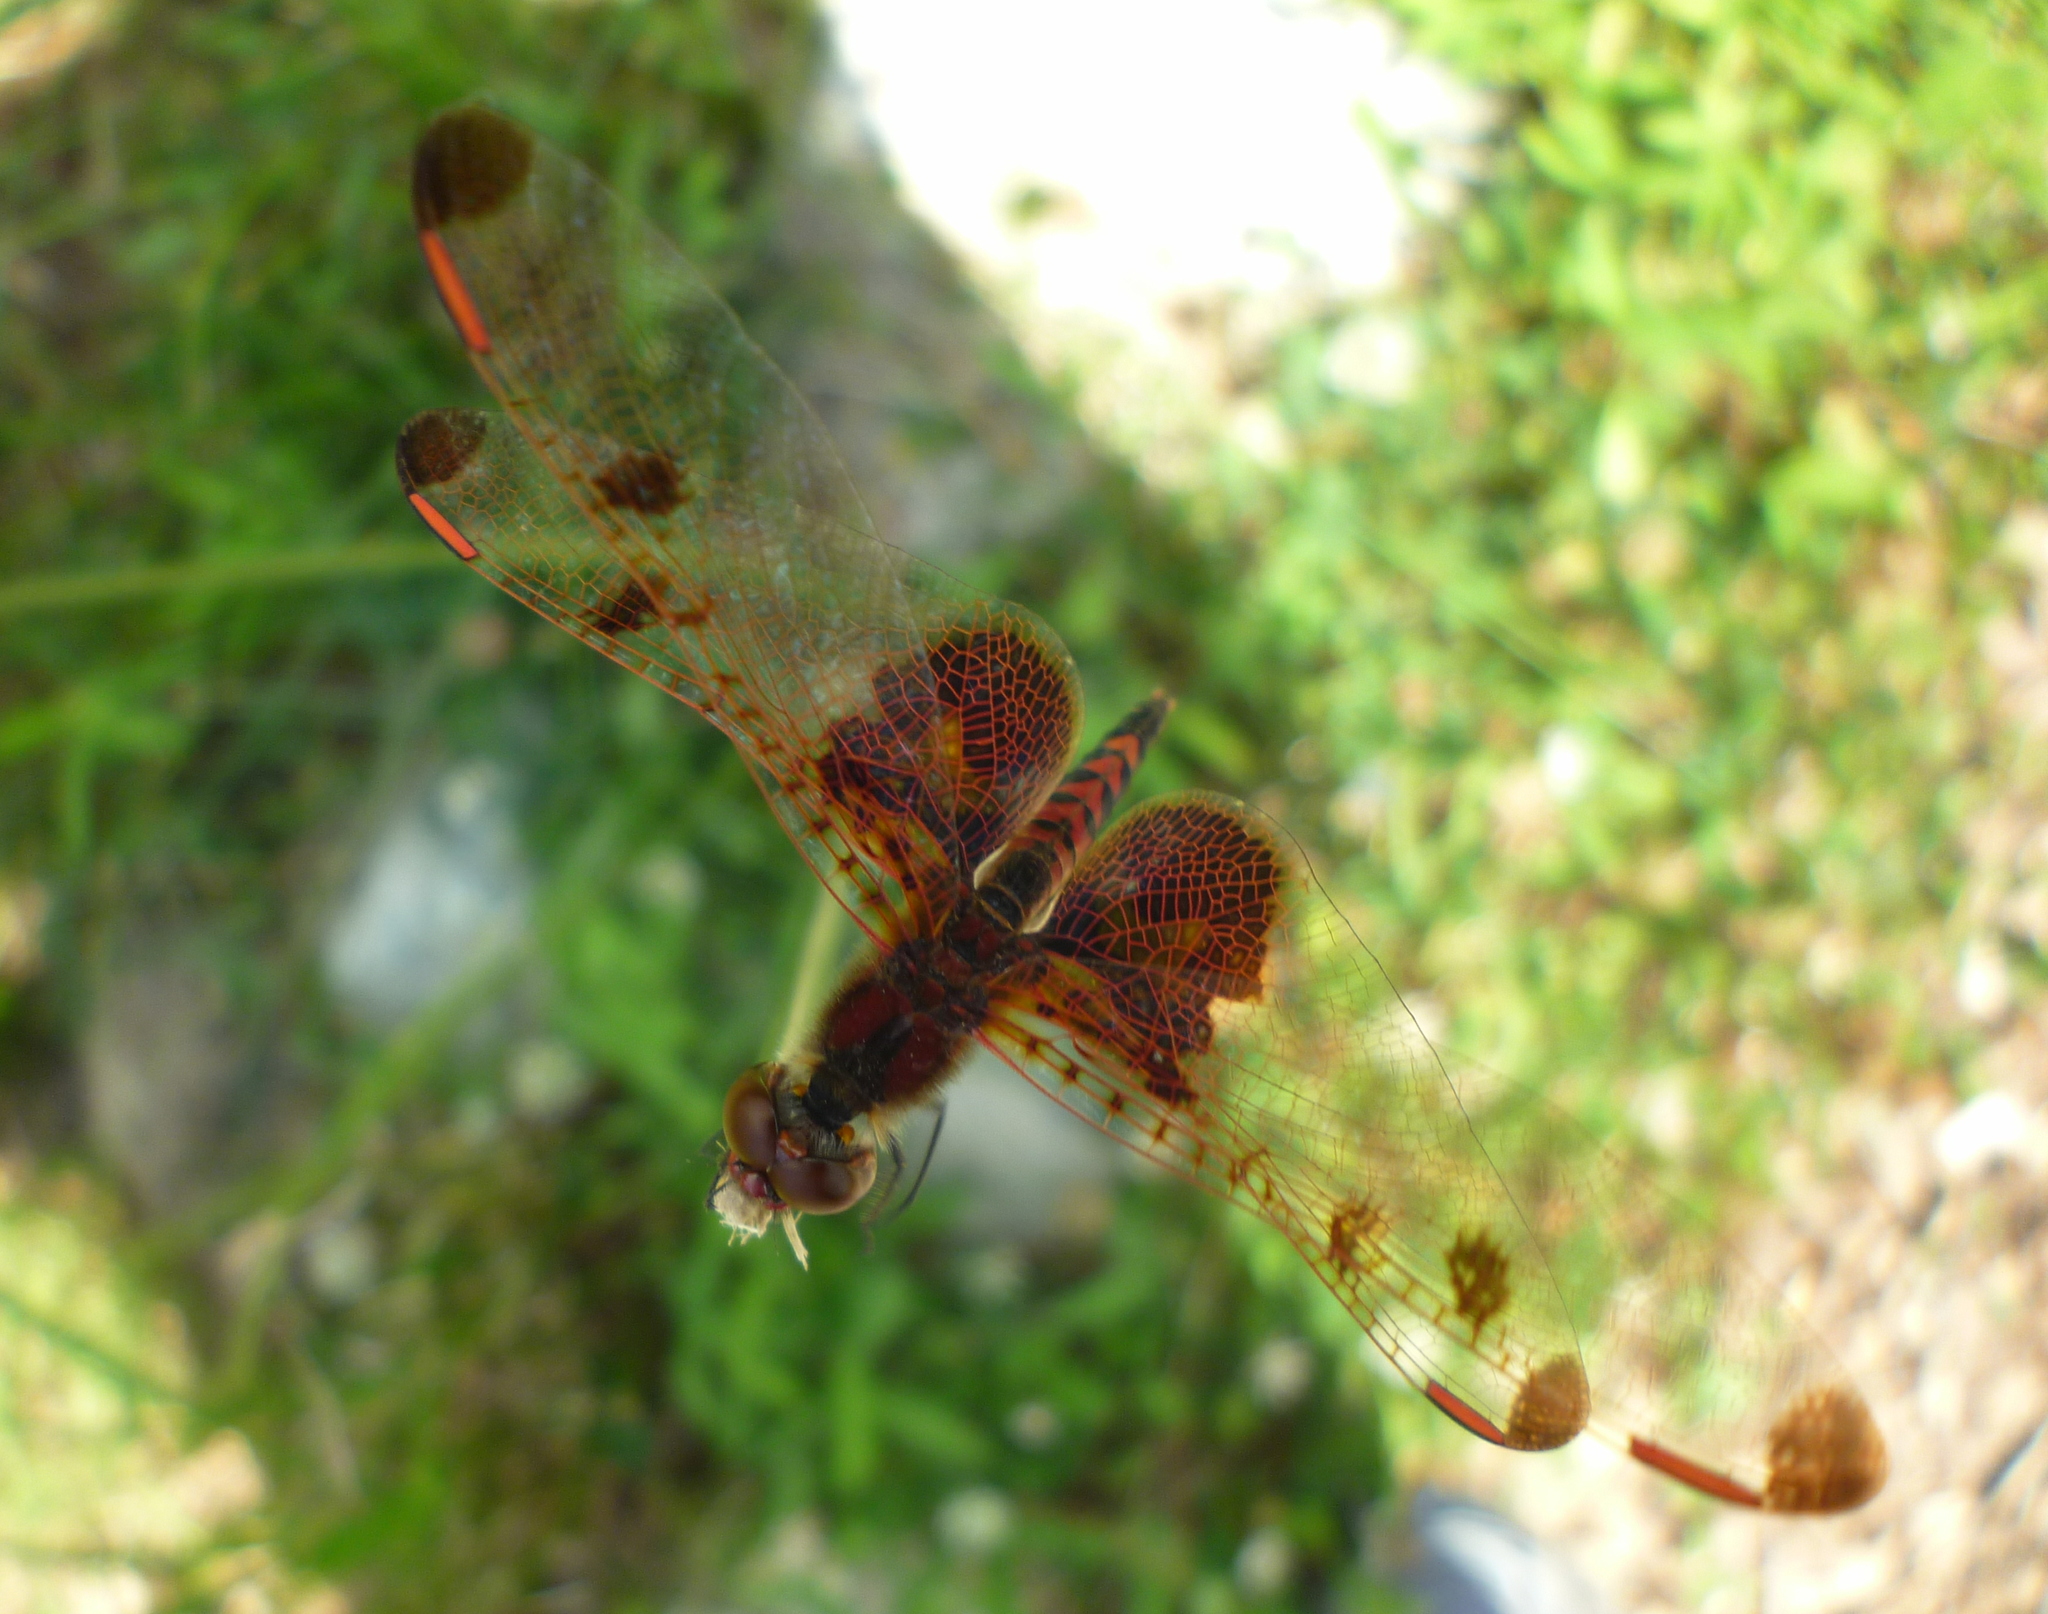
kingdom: Animalia
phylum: Arthropoda
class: Insecta
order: Odonata
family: Libellulidae
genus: Celithemis
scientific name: Celithemis elisa
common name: Calico pennant
